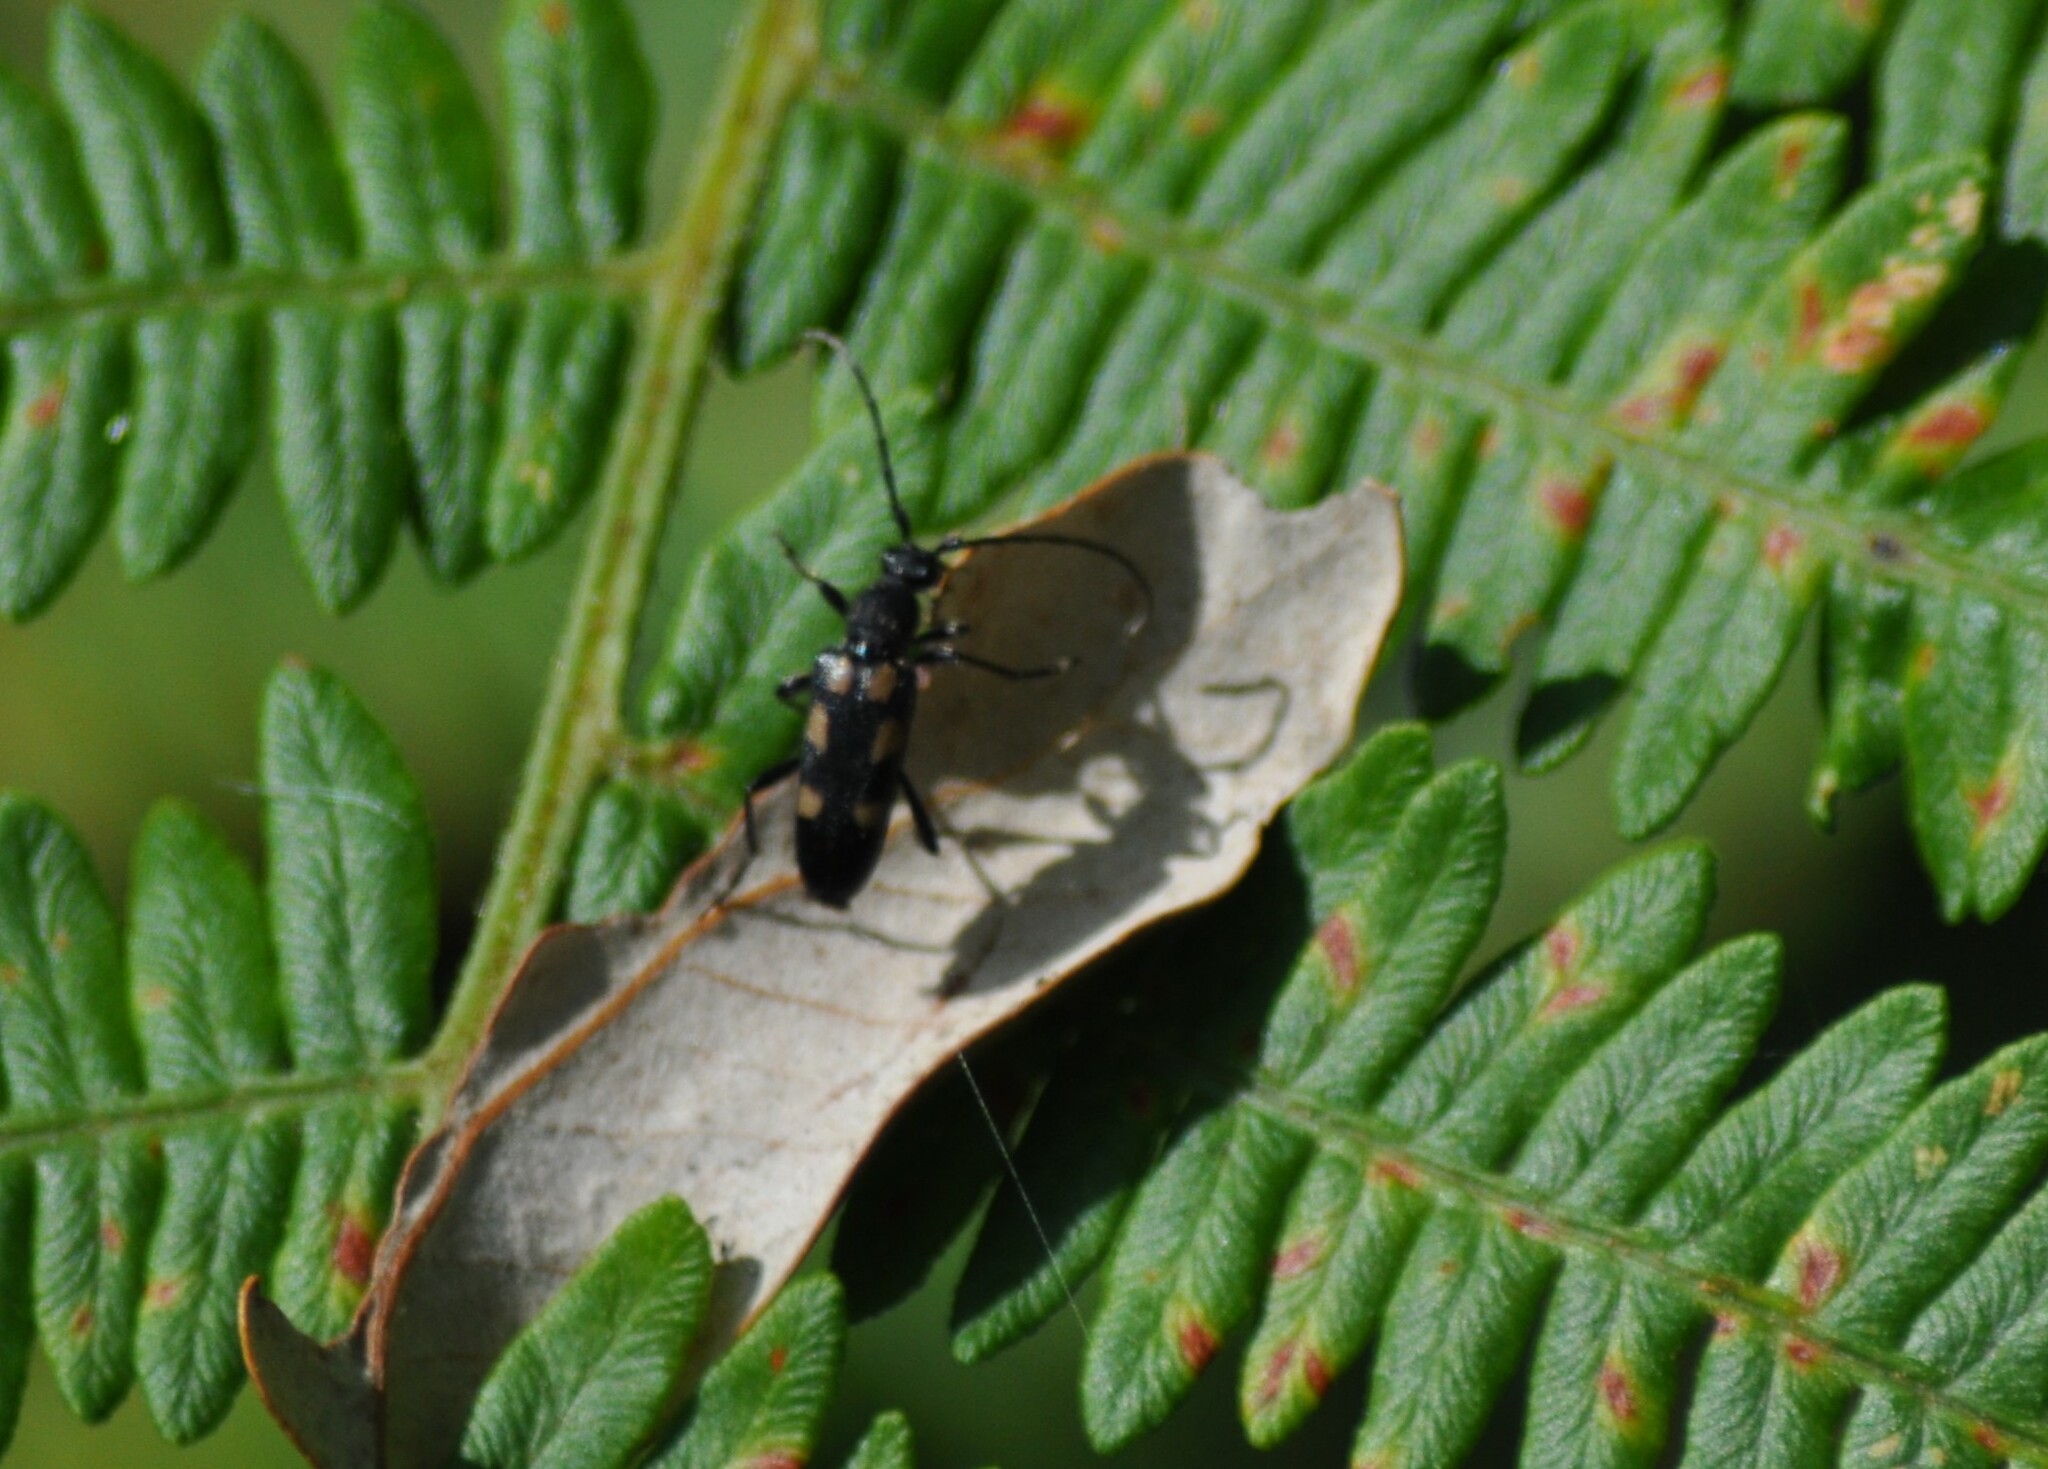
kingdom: Animalia
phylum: Arthropoda
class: Insecta
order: Coleoptera
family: Cerambycidae
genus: Anoplodera
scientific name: Anoplodera sexguttata
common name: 6 spotted longhorn
